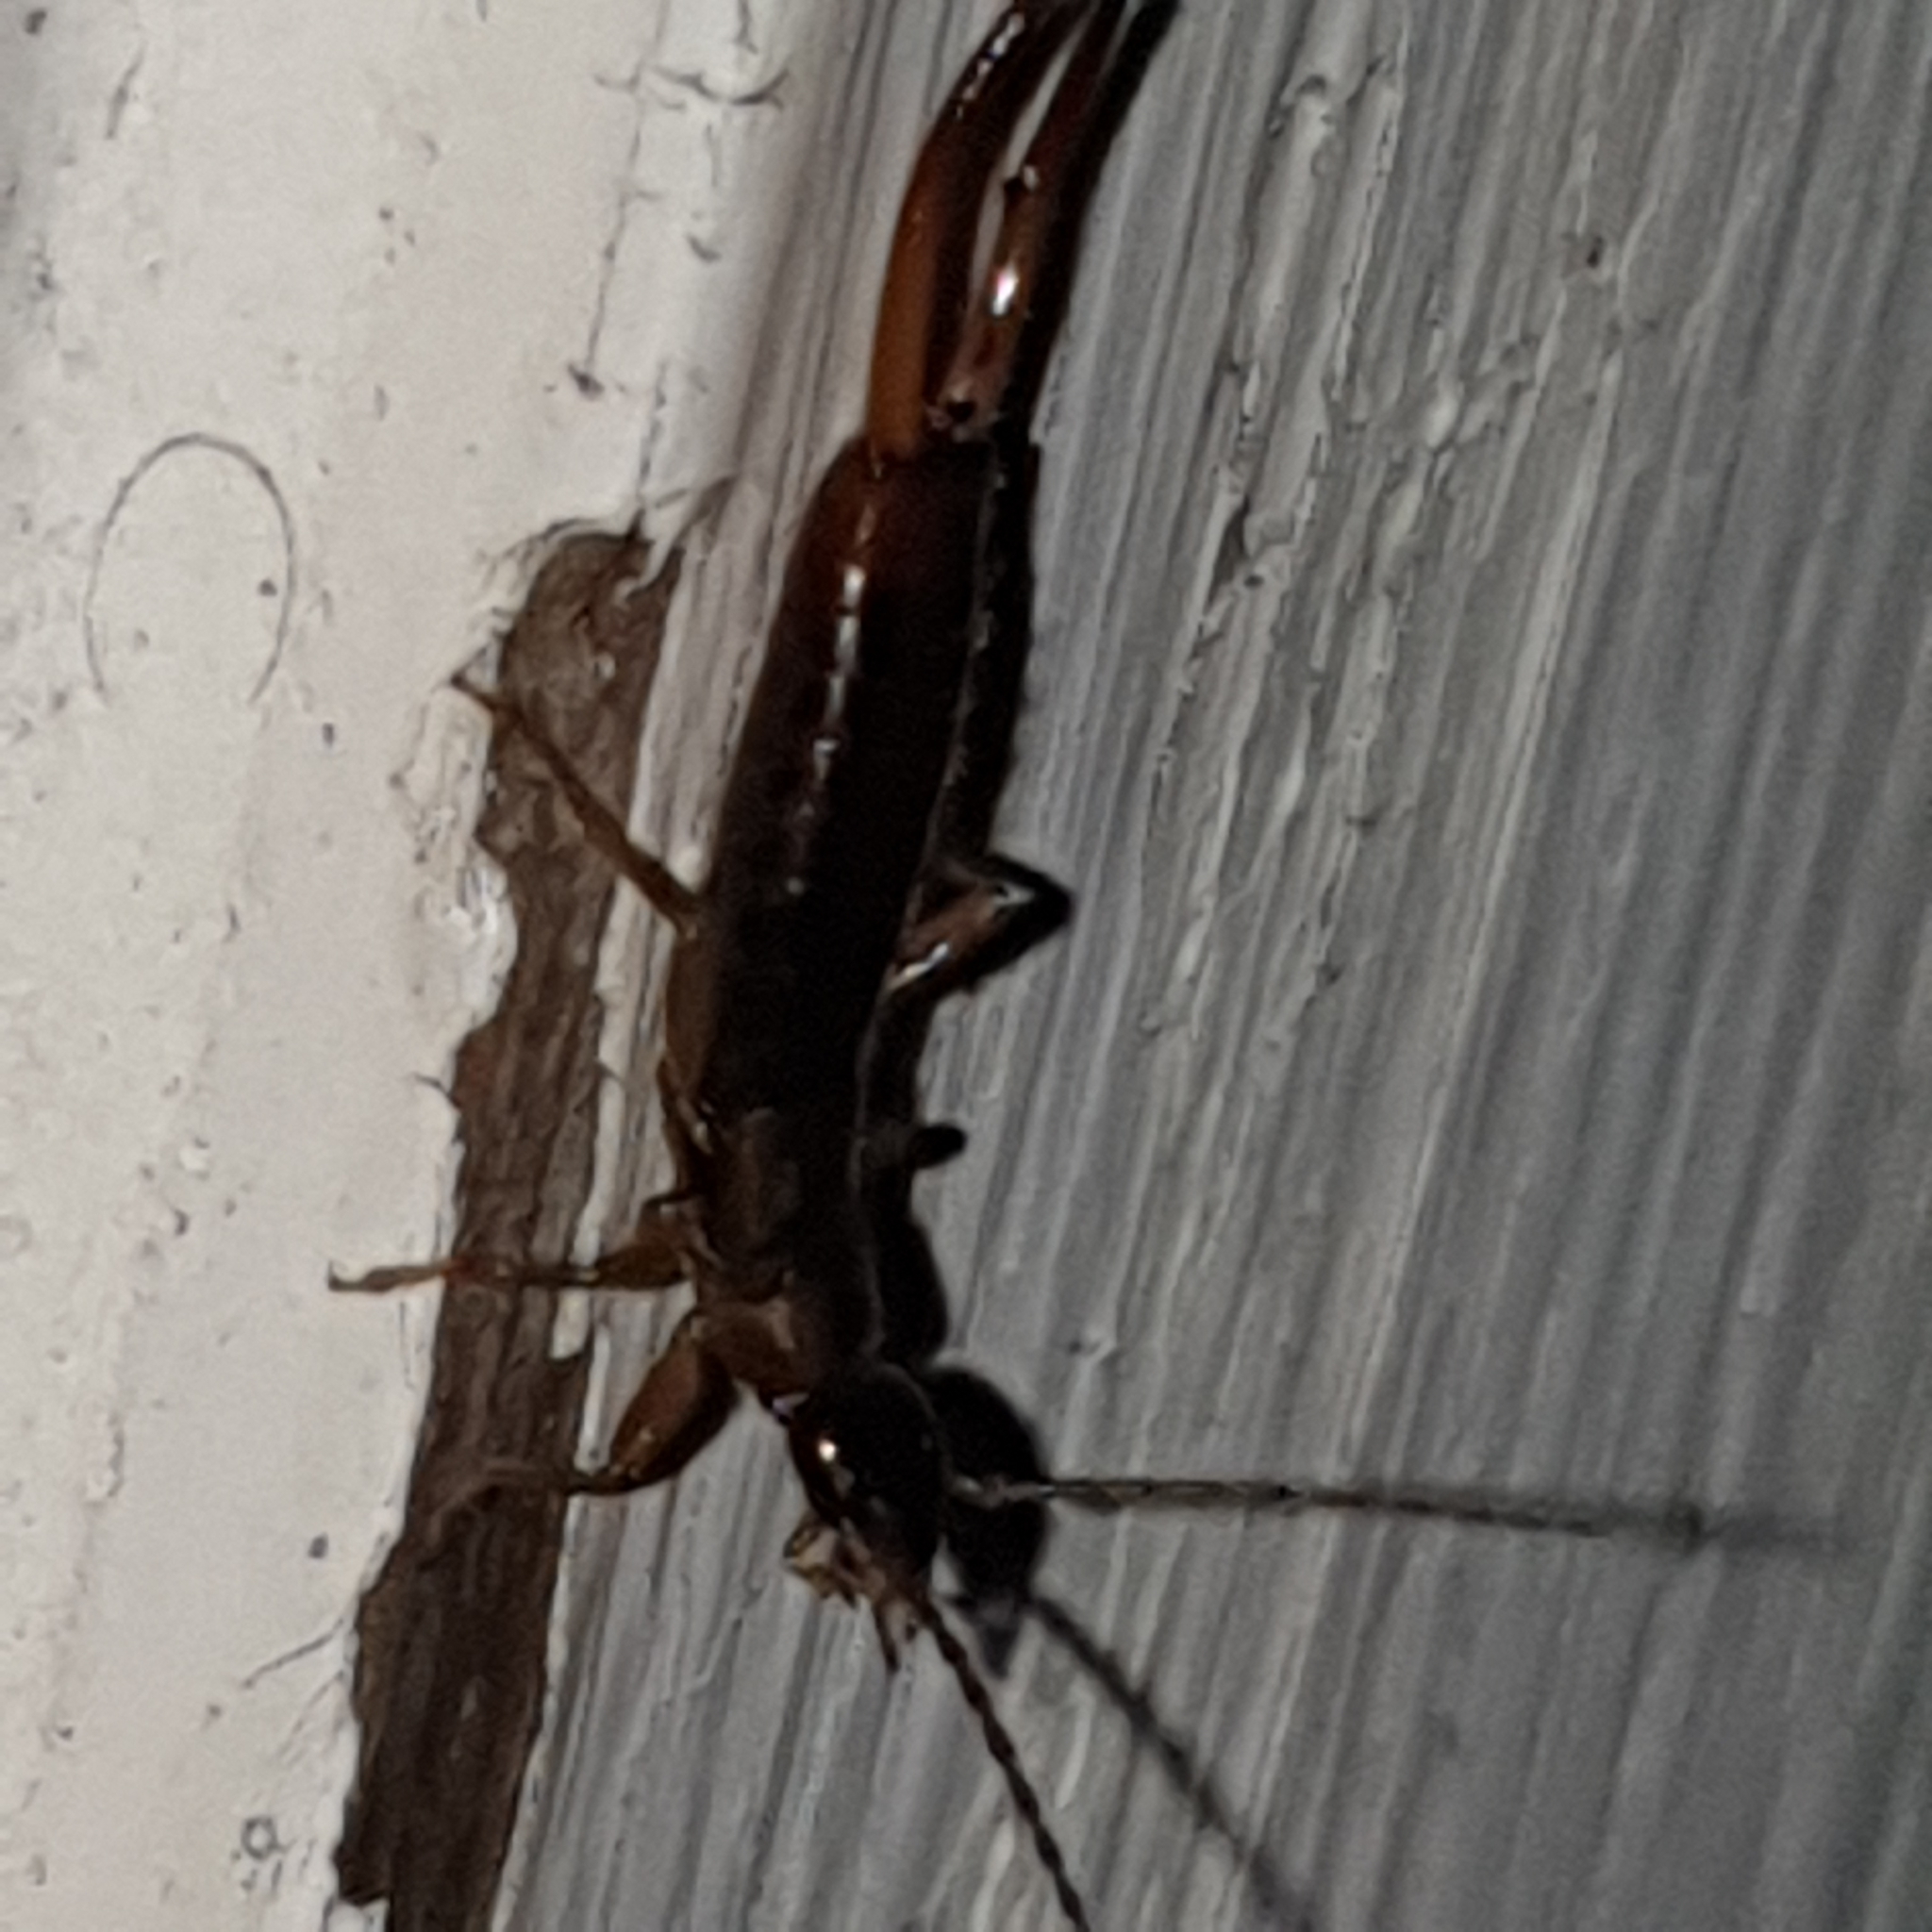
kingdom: Animalia
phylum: Arthropoda
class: Insecta
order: Dermaptera
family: Forficulidae
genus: Apterygida
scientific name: Apterygida albipennis
